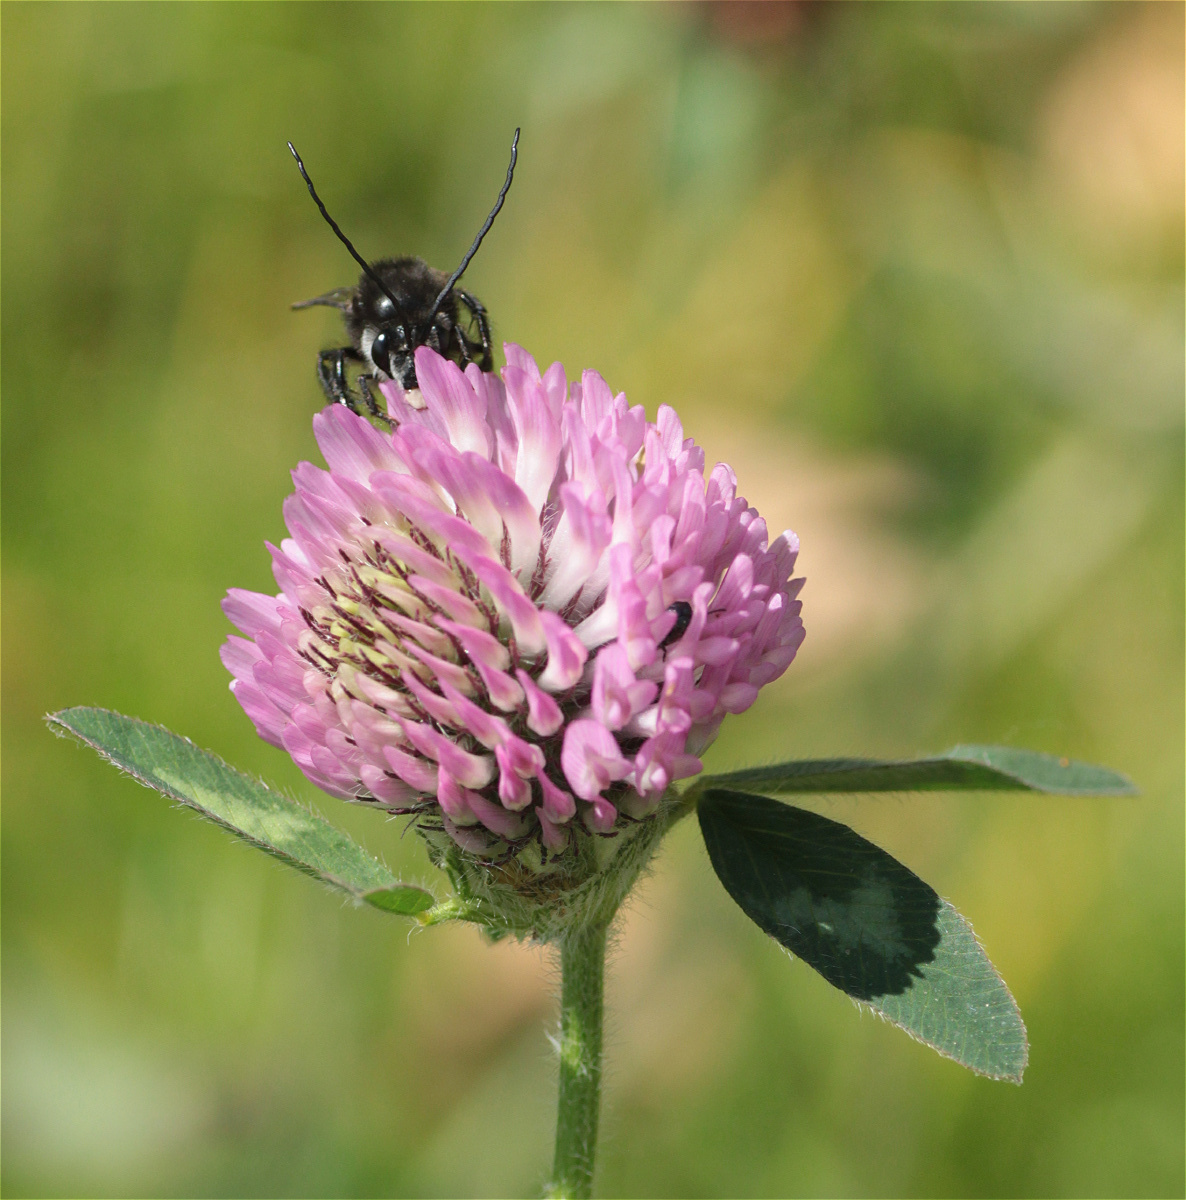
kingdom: Animalia
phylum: Arthropoda
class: Insecta
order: Hymenoptera
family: Apidae
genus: Thygater
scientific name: Thygater aethiops
